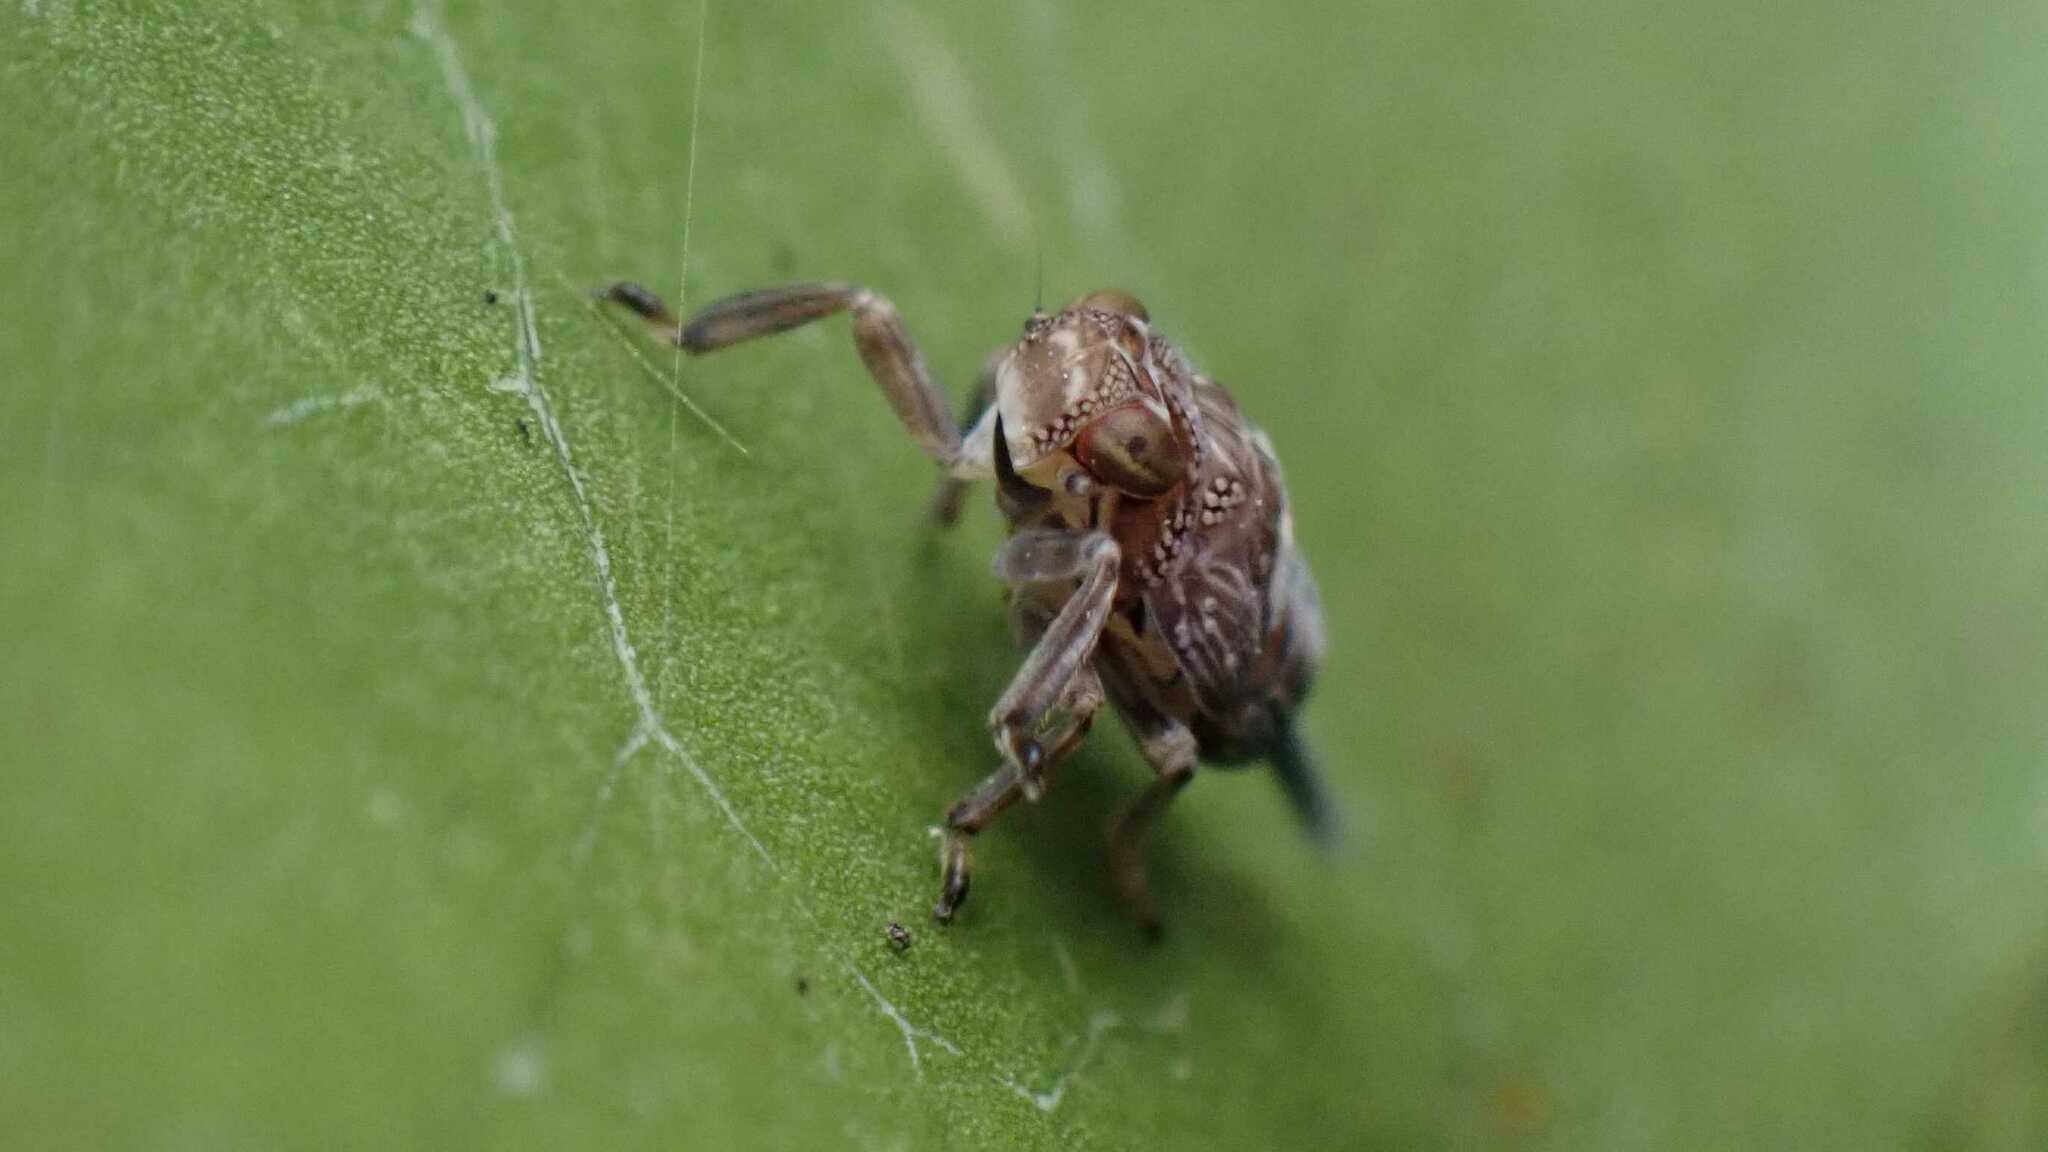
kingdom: Animalia
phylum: Arthropoda
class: Insecta
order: Hemiptera
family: Issidae
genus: Issus
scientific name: Issus coleoptratus
